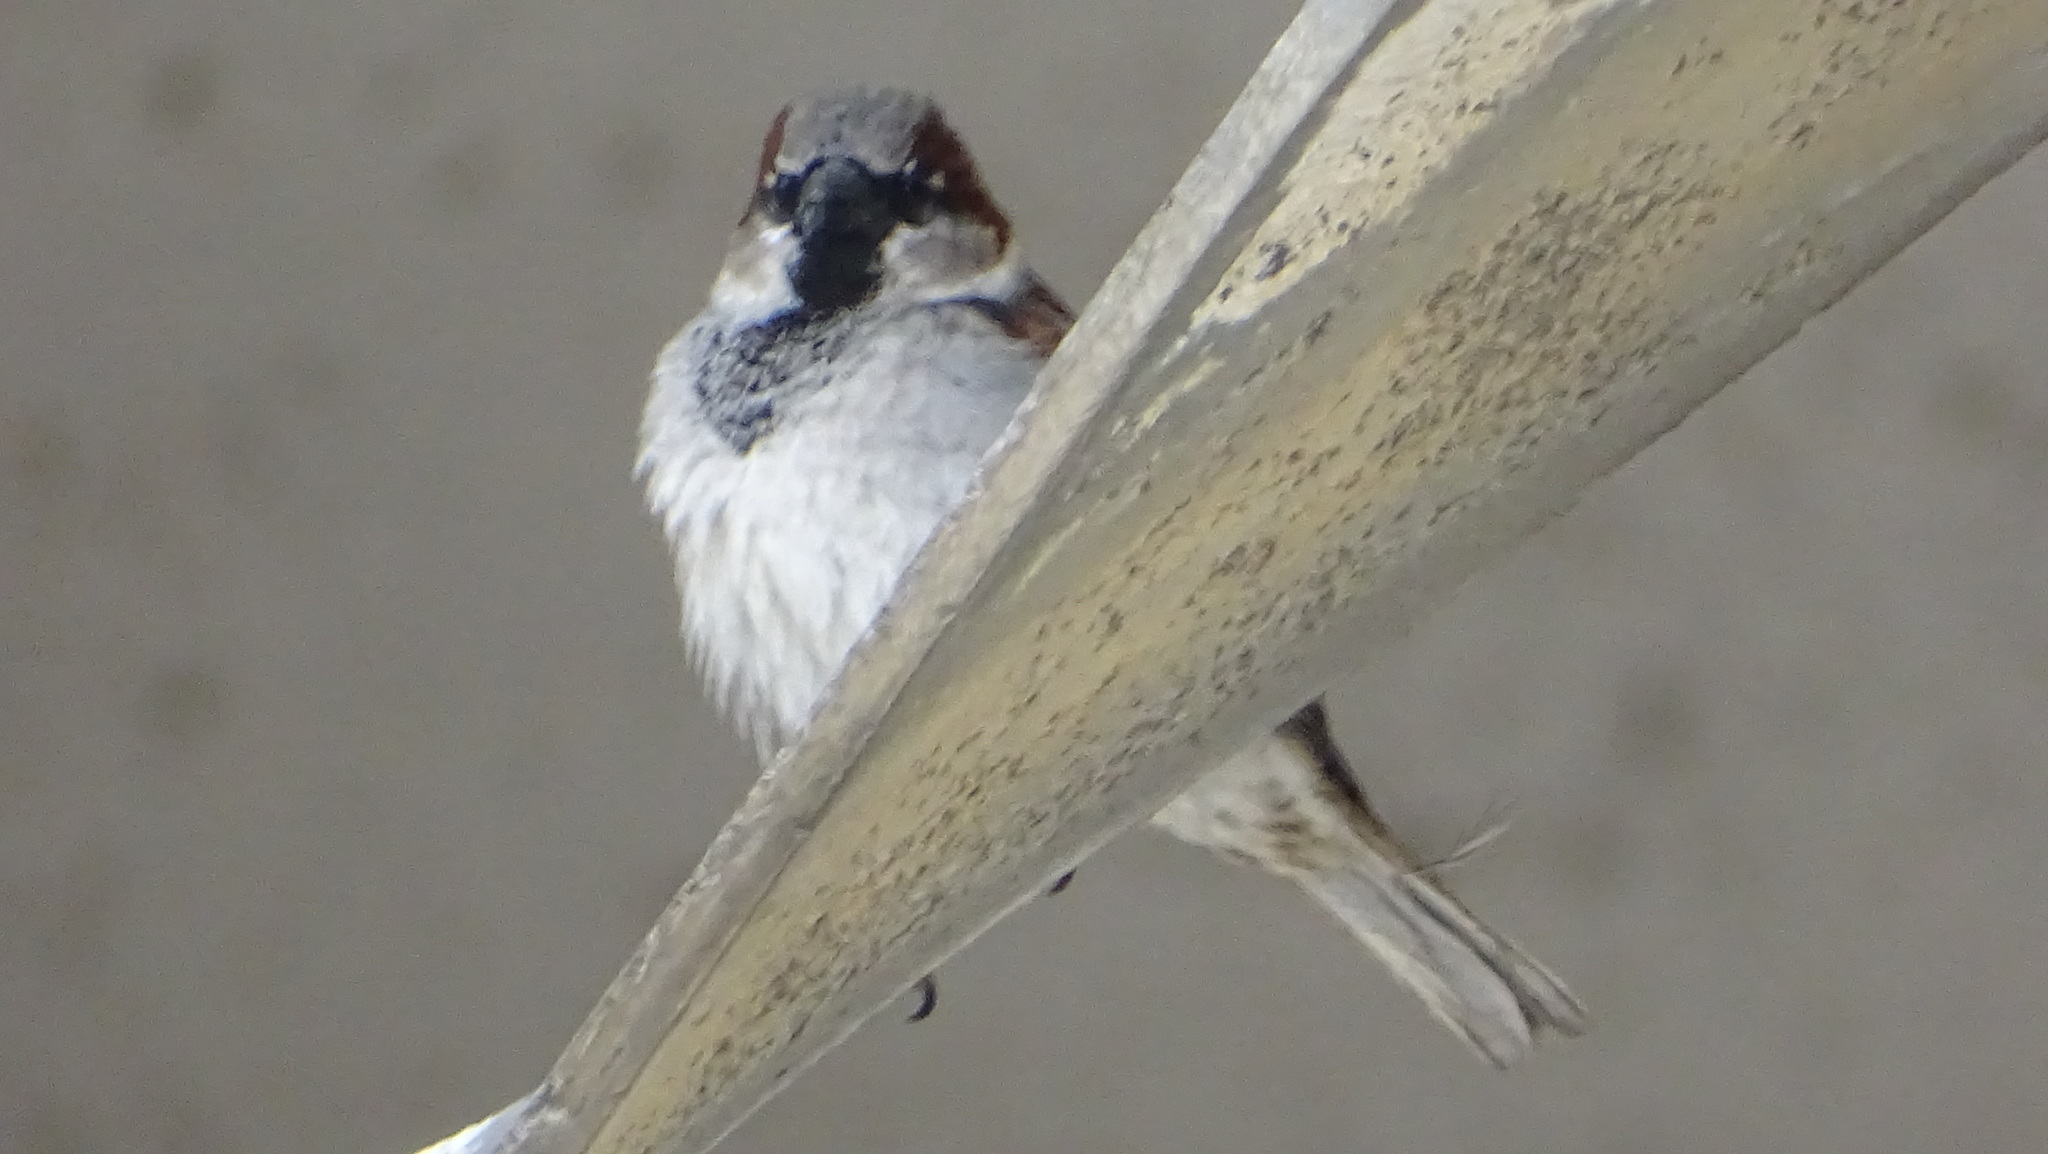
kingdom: Animalia
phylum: Chordata
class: Aves
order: Passeriformes
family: Passeridae
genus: Passer
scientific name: Passer domesticus
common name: House sparrow
